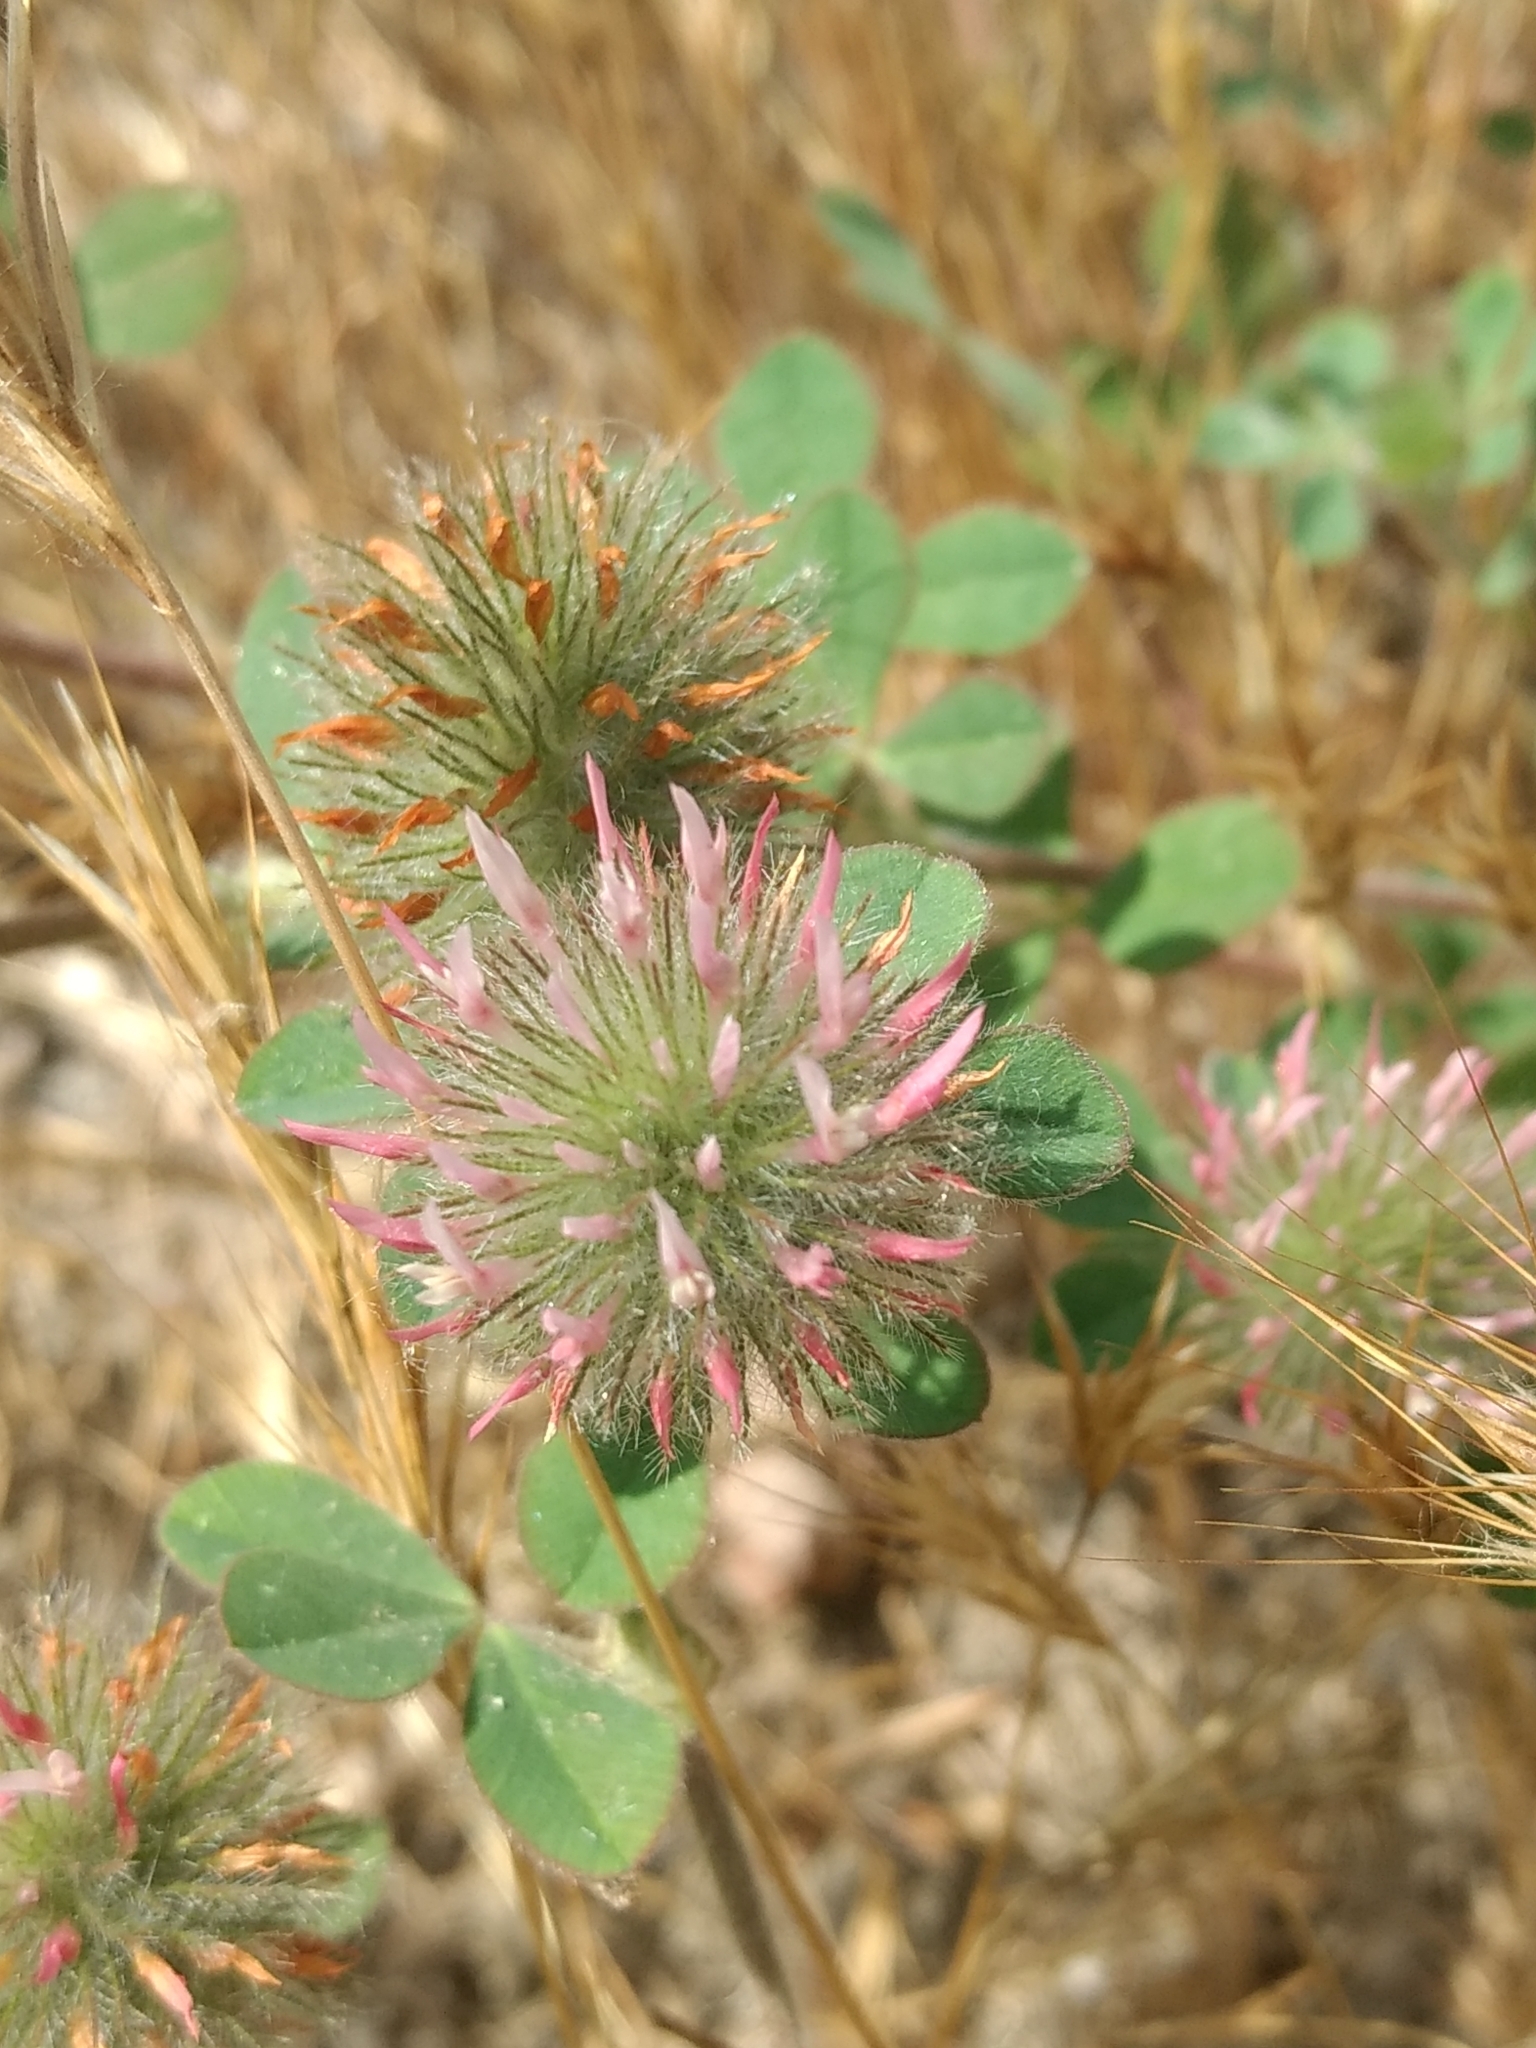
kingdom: Plantae
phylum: Tracheophyta
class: Magnoliopsida
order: Fabales
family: Fabaceae
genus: Trifolium
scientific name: Trifolium hirtum
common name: Rose clover
